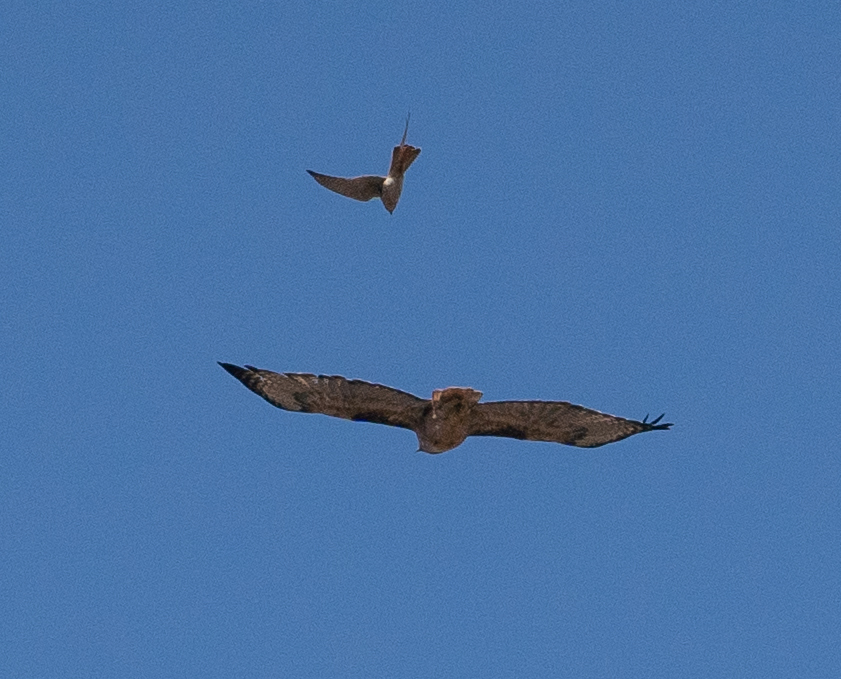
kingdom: Animalia
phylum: Chordata
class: Aves
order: Accipitriformes
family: Accipitridae
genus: Buteo
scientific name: Buteo jamaicensis
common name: Red-tailed hawk
